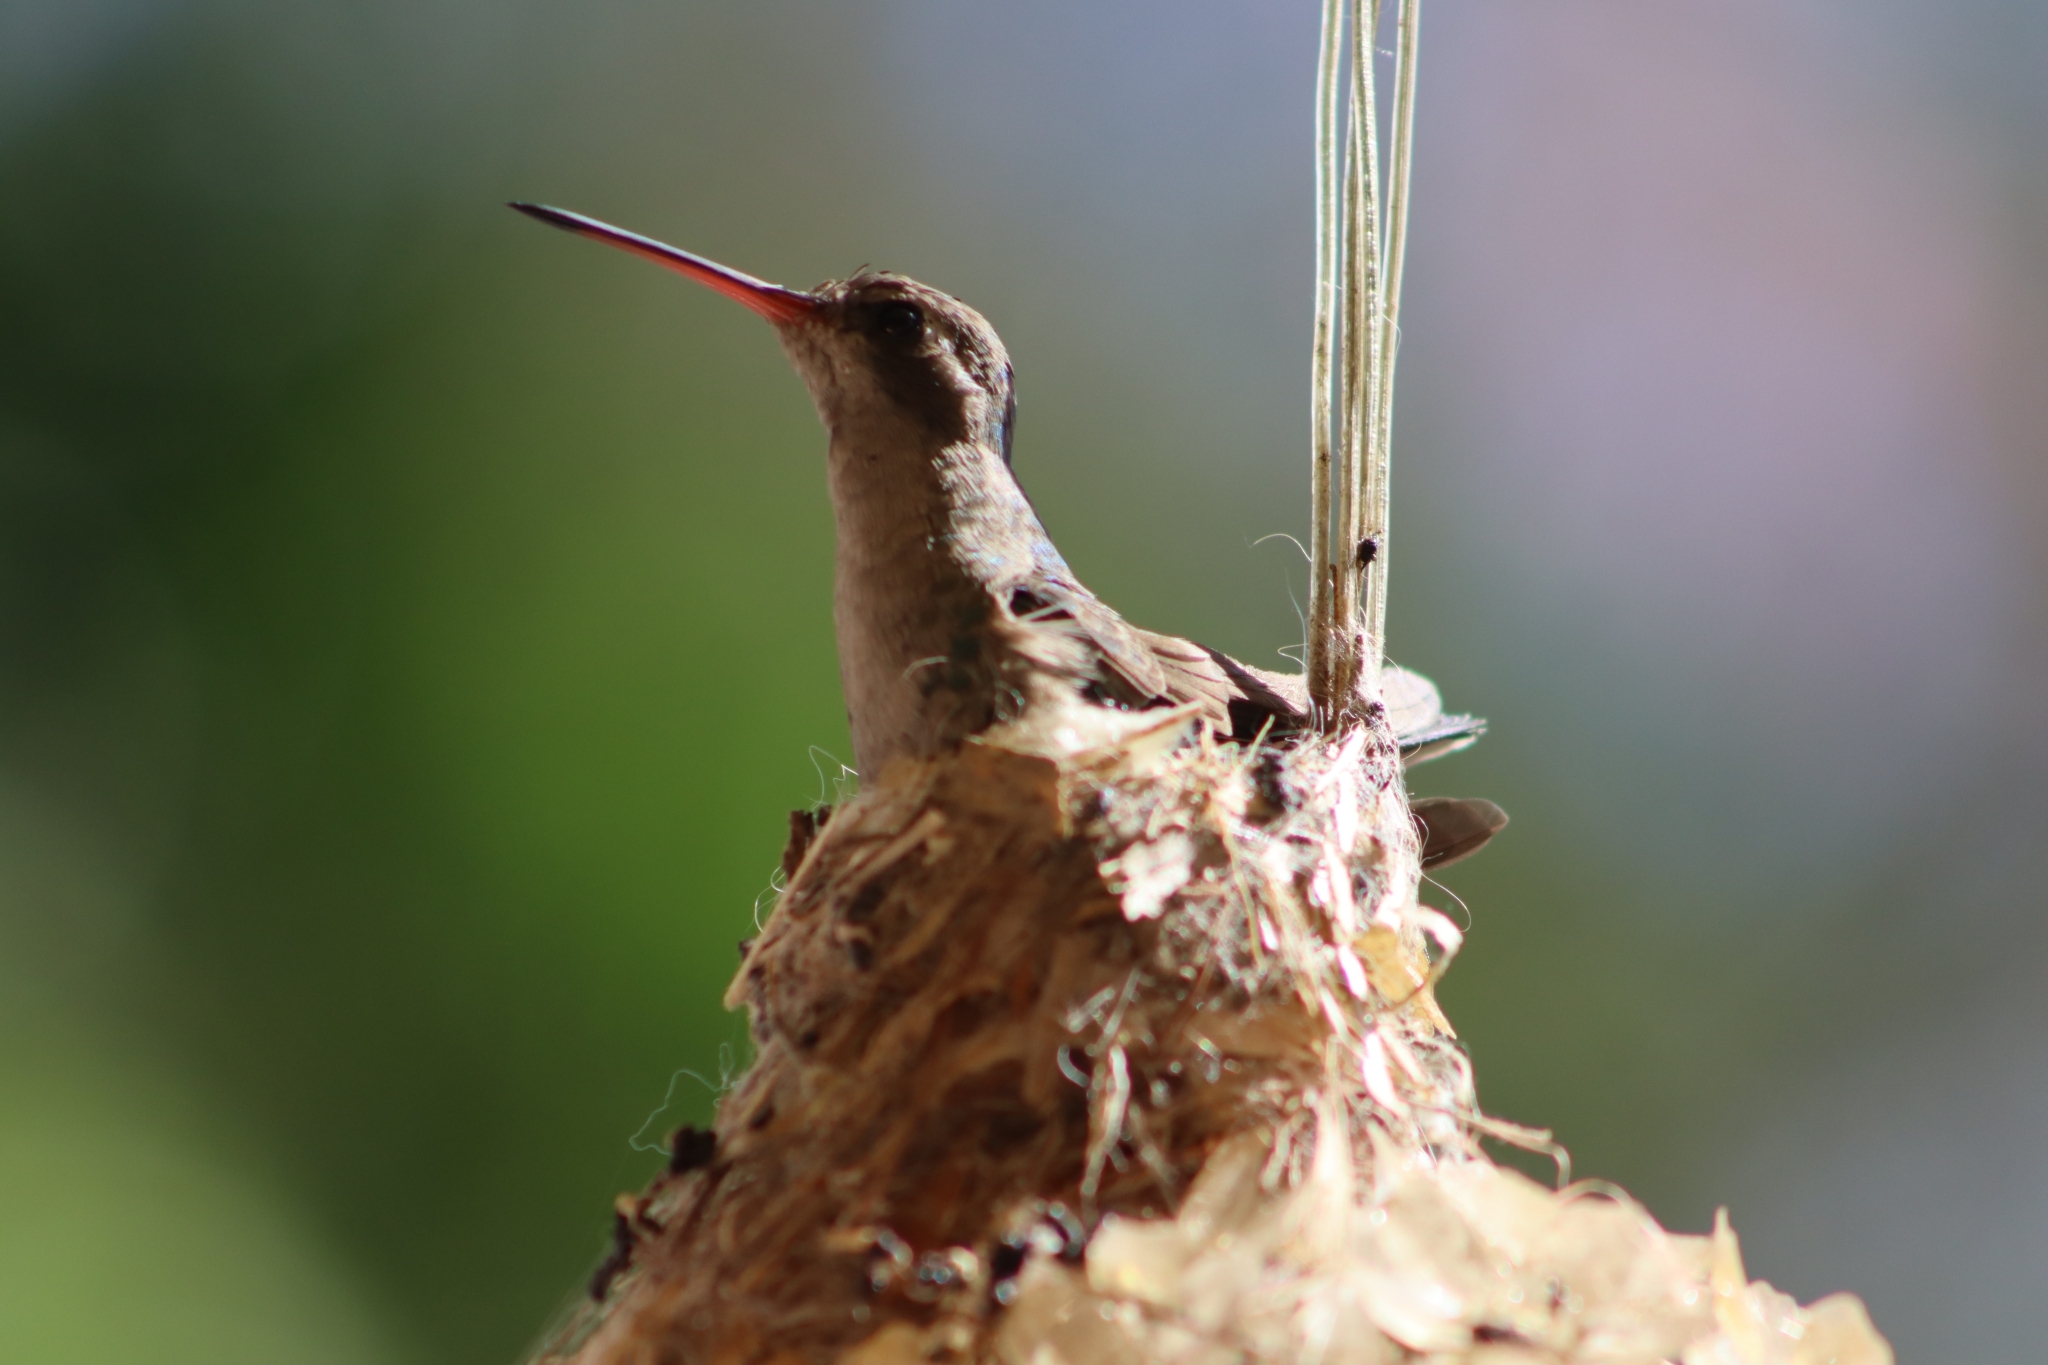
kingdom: Animalia
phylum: Chordata
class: Aves
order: Apodiformes
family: Trochilidae
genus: Cynanthus
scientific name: Cynanthus latirostris
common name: Broad-billed hummingbird
